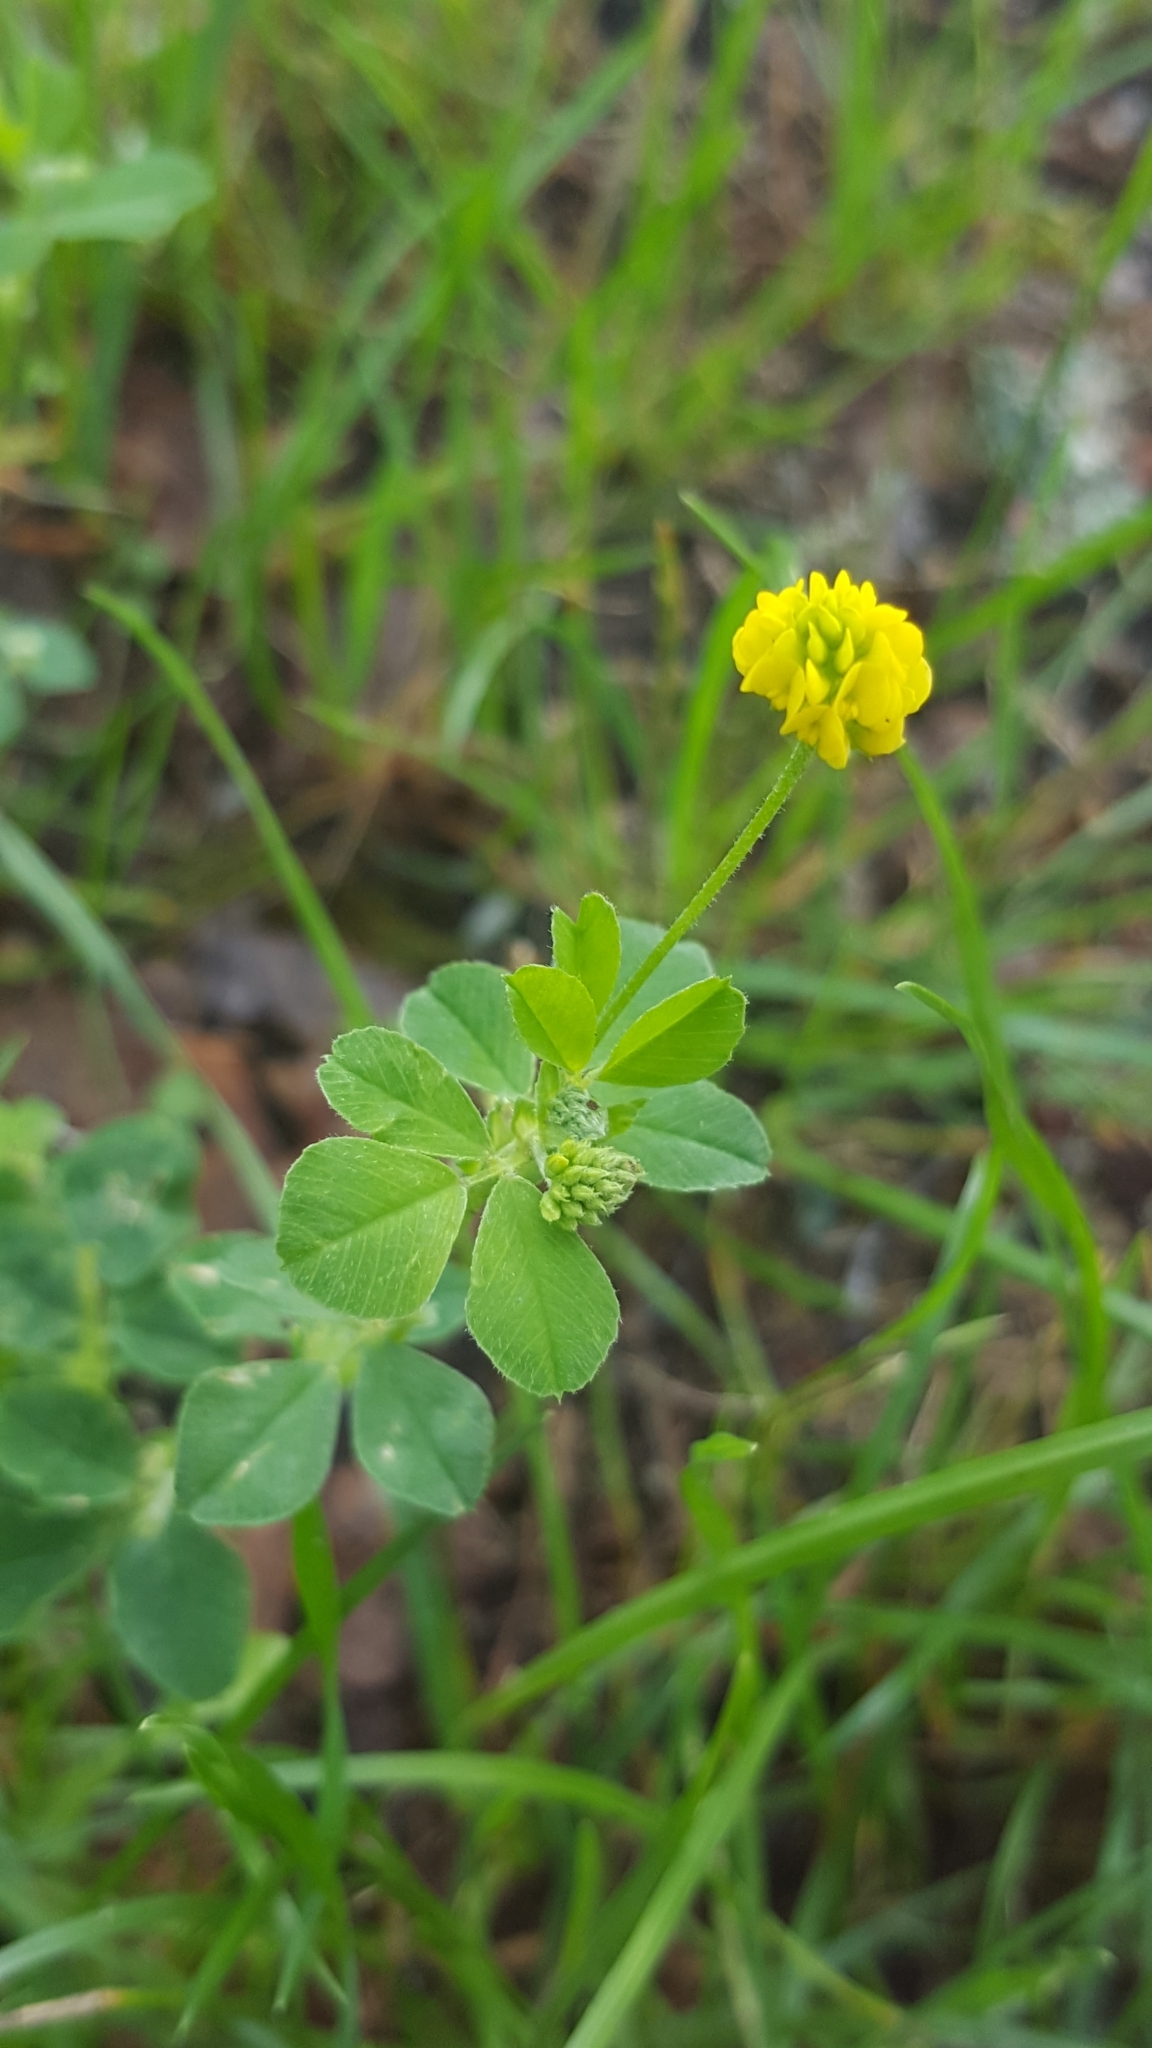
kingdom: Plantae
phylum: Tracheophyta
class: Magnoliopsida
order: Fabales
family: Fabaceae
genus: Medicago
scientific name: Medicago lupulina
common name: Black medick
